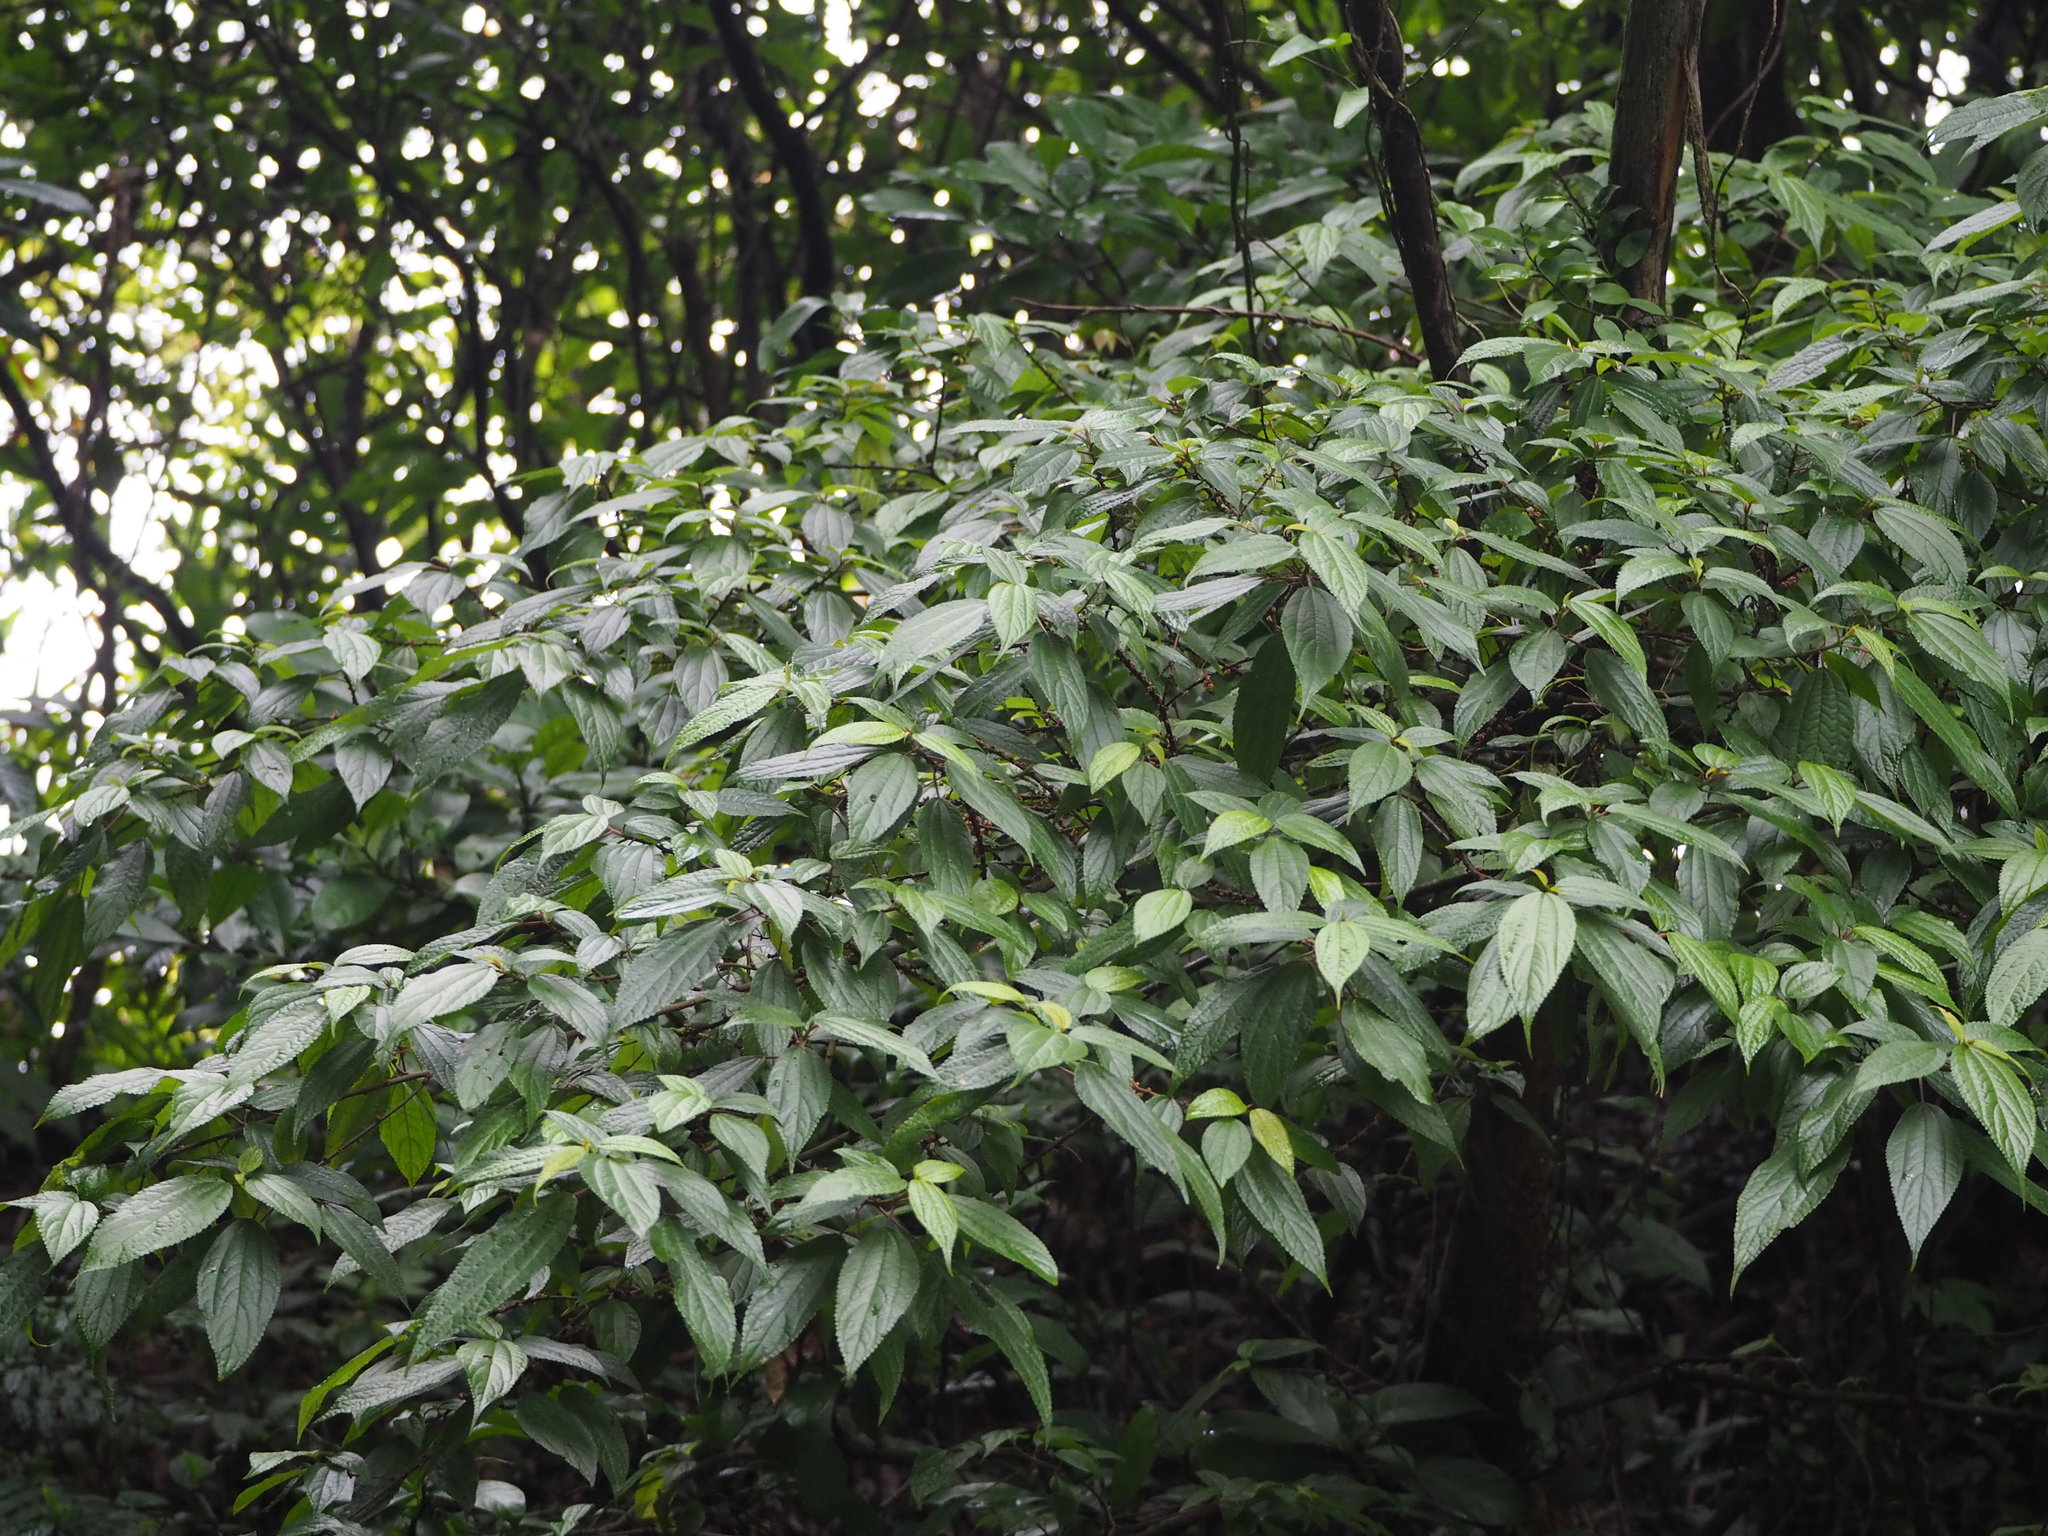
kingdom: Plantae
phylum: Tracheophyta
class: Magnoliopsida
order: Rosales
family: Urticaceae
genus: Oreocnide
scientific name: Oreocnide pedunculata
